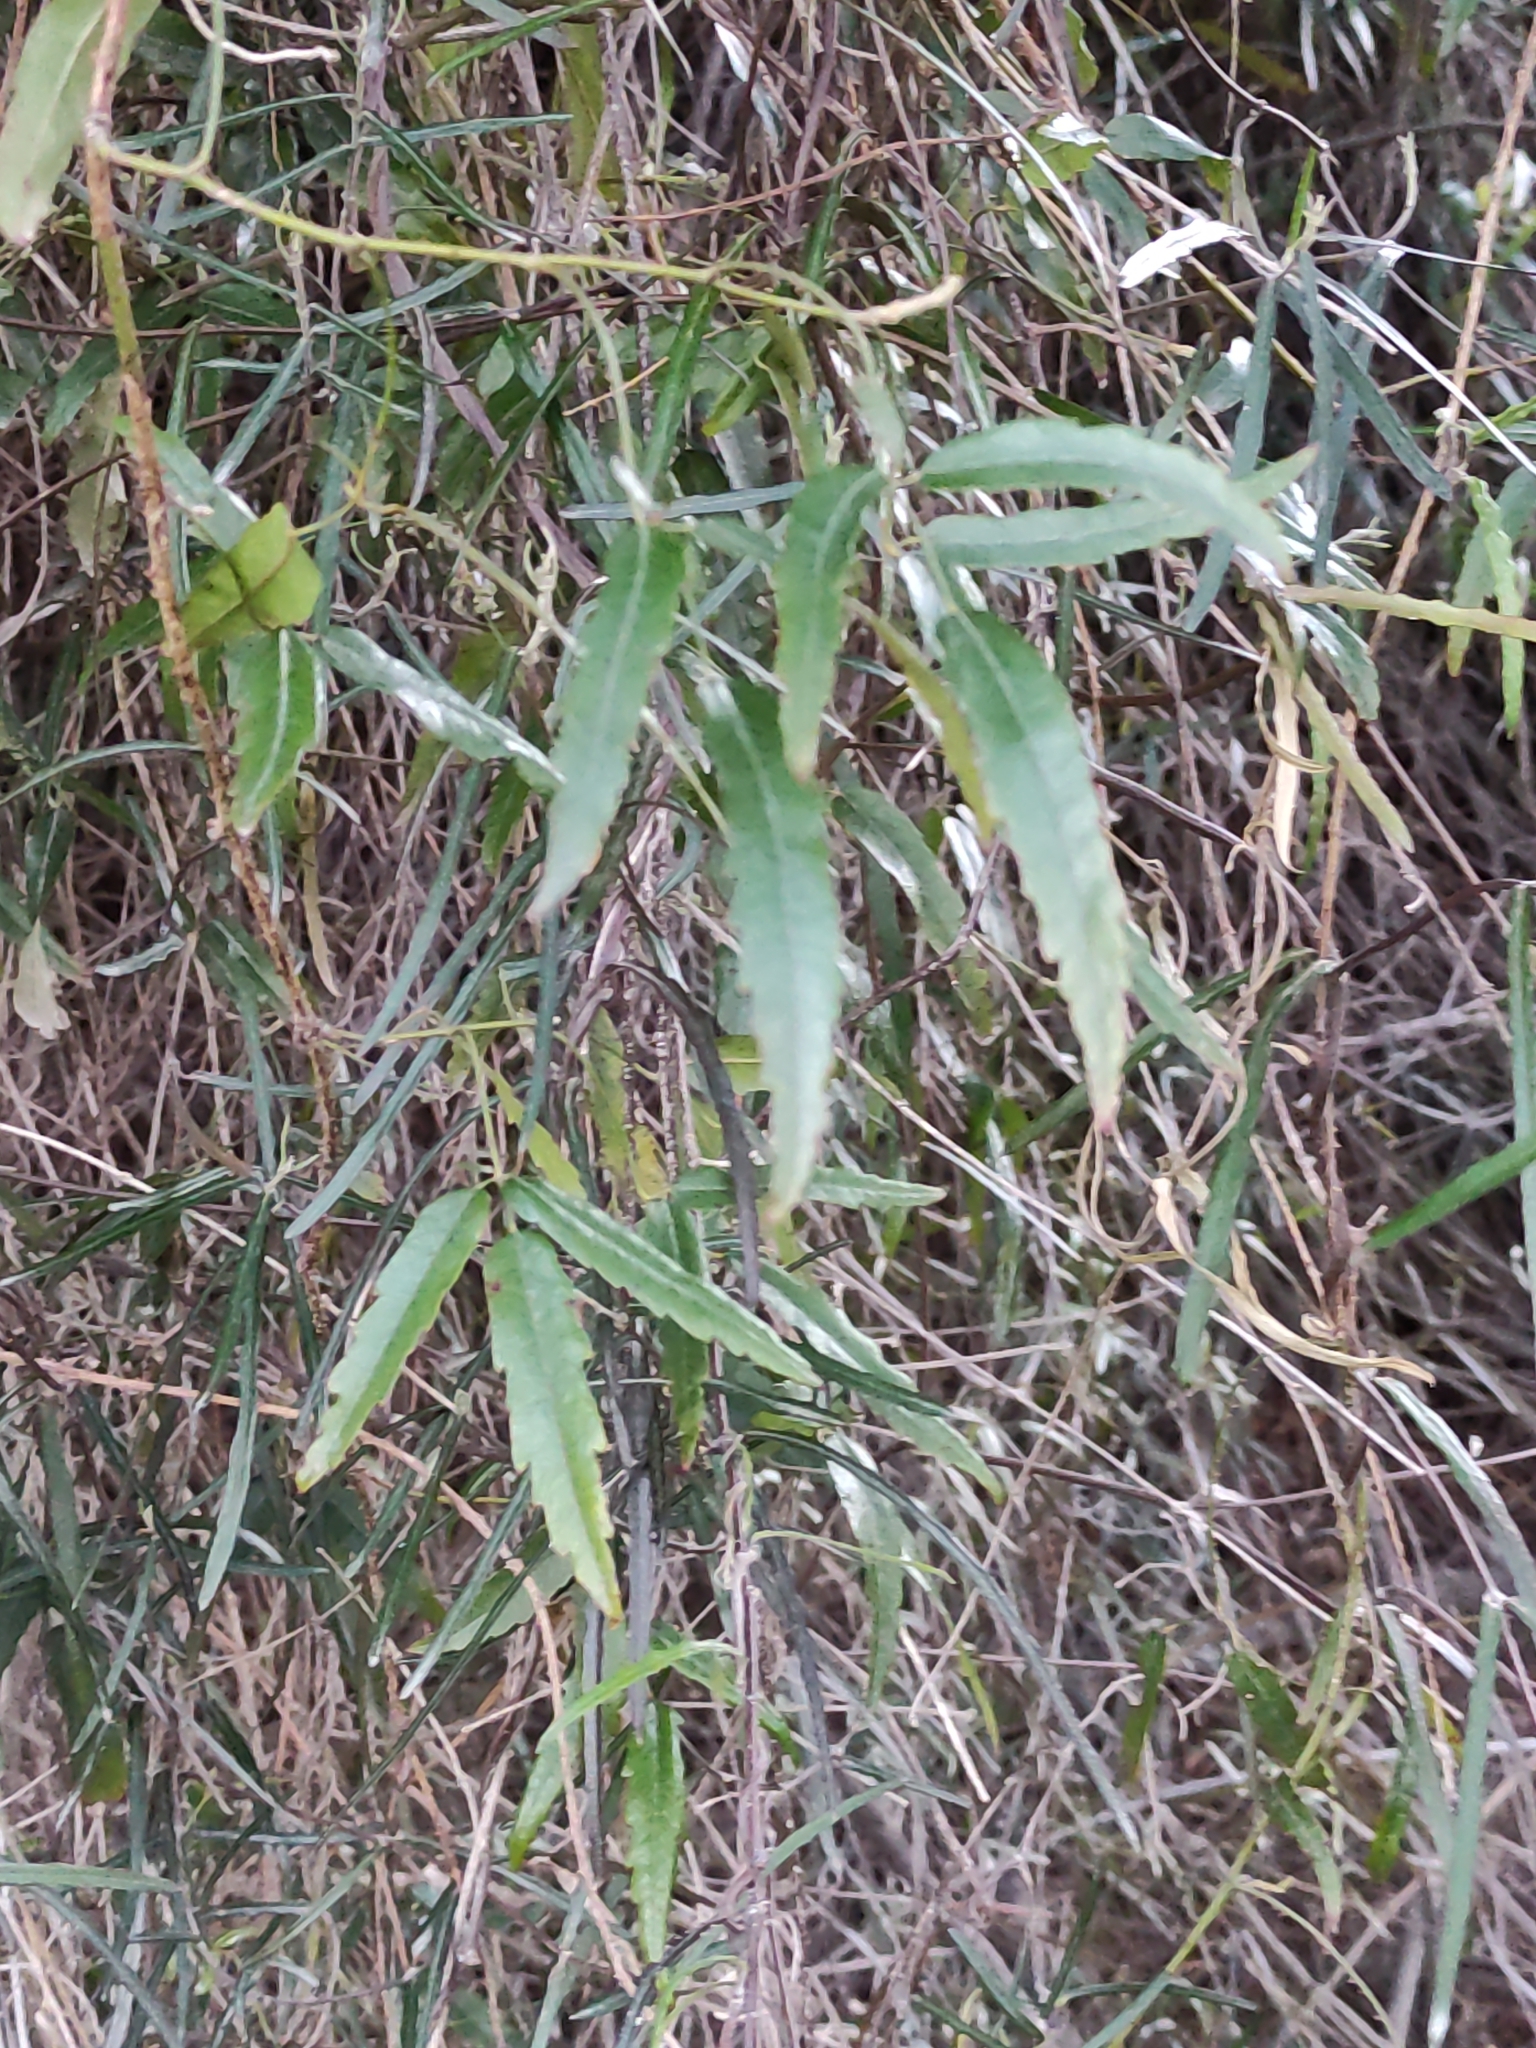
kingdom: Plantae
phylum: Tracheophyta
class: Magnoliopsida
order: Rosales
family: Rosaceae
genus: Rubus
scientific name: Rubus schmidelioides
